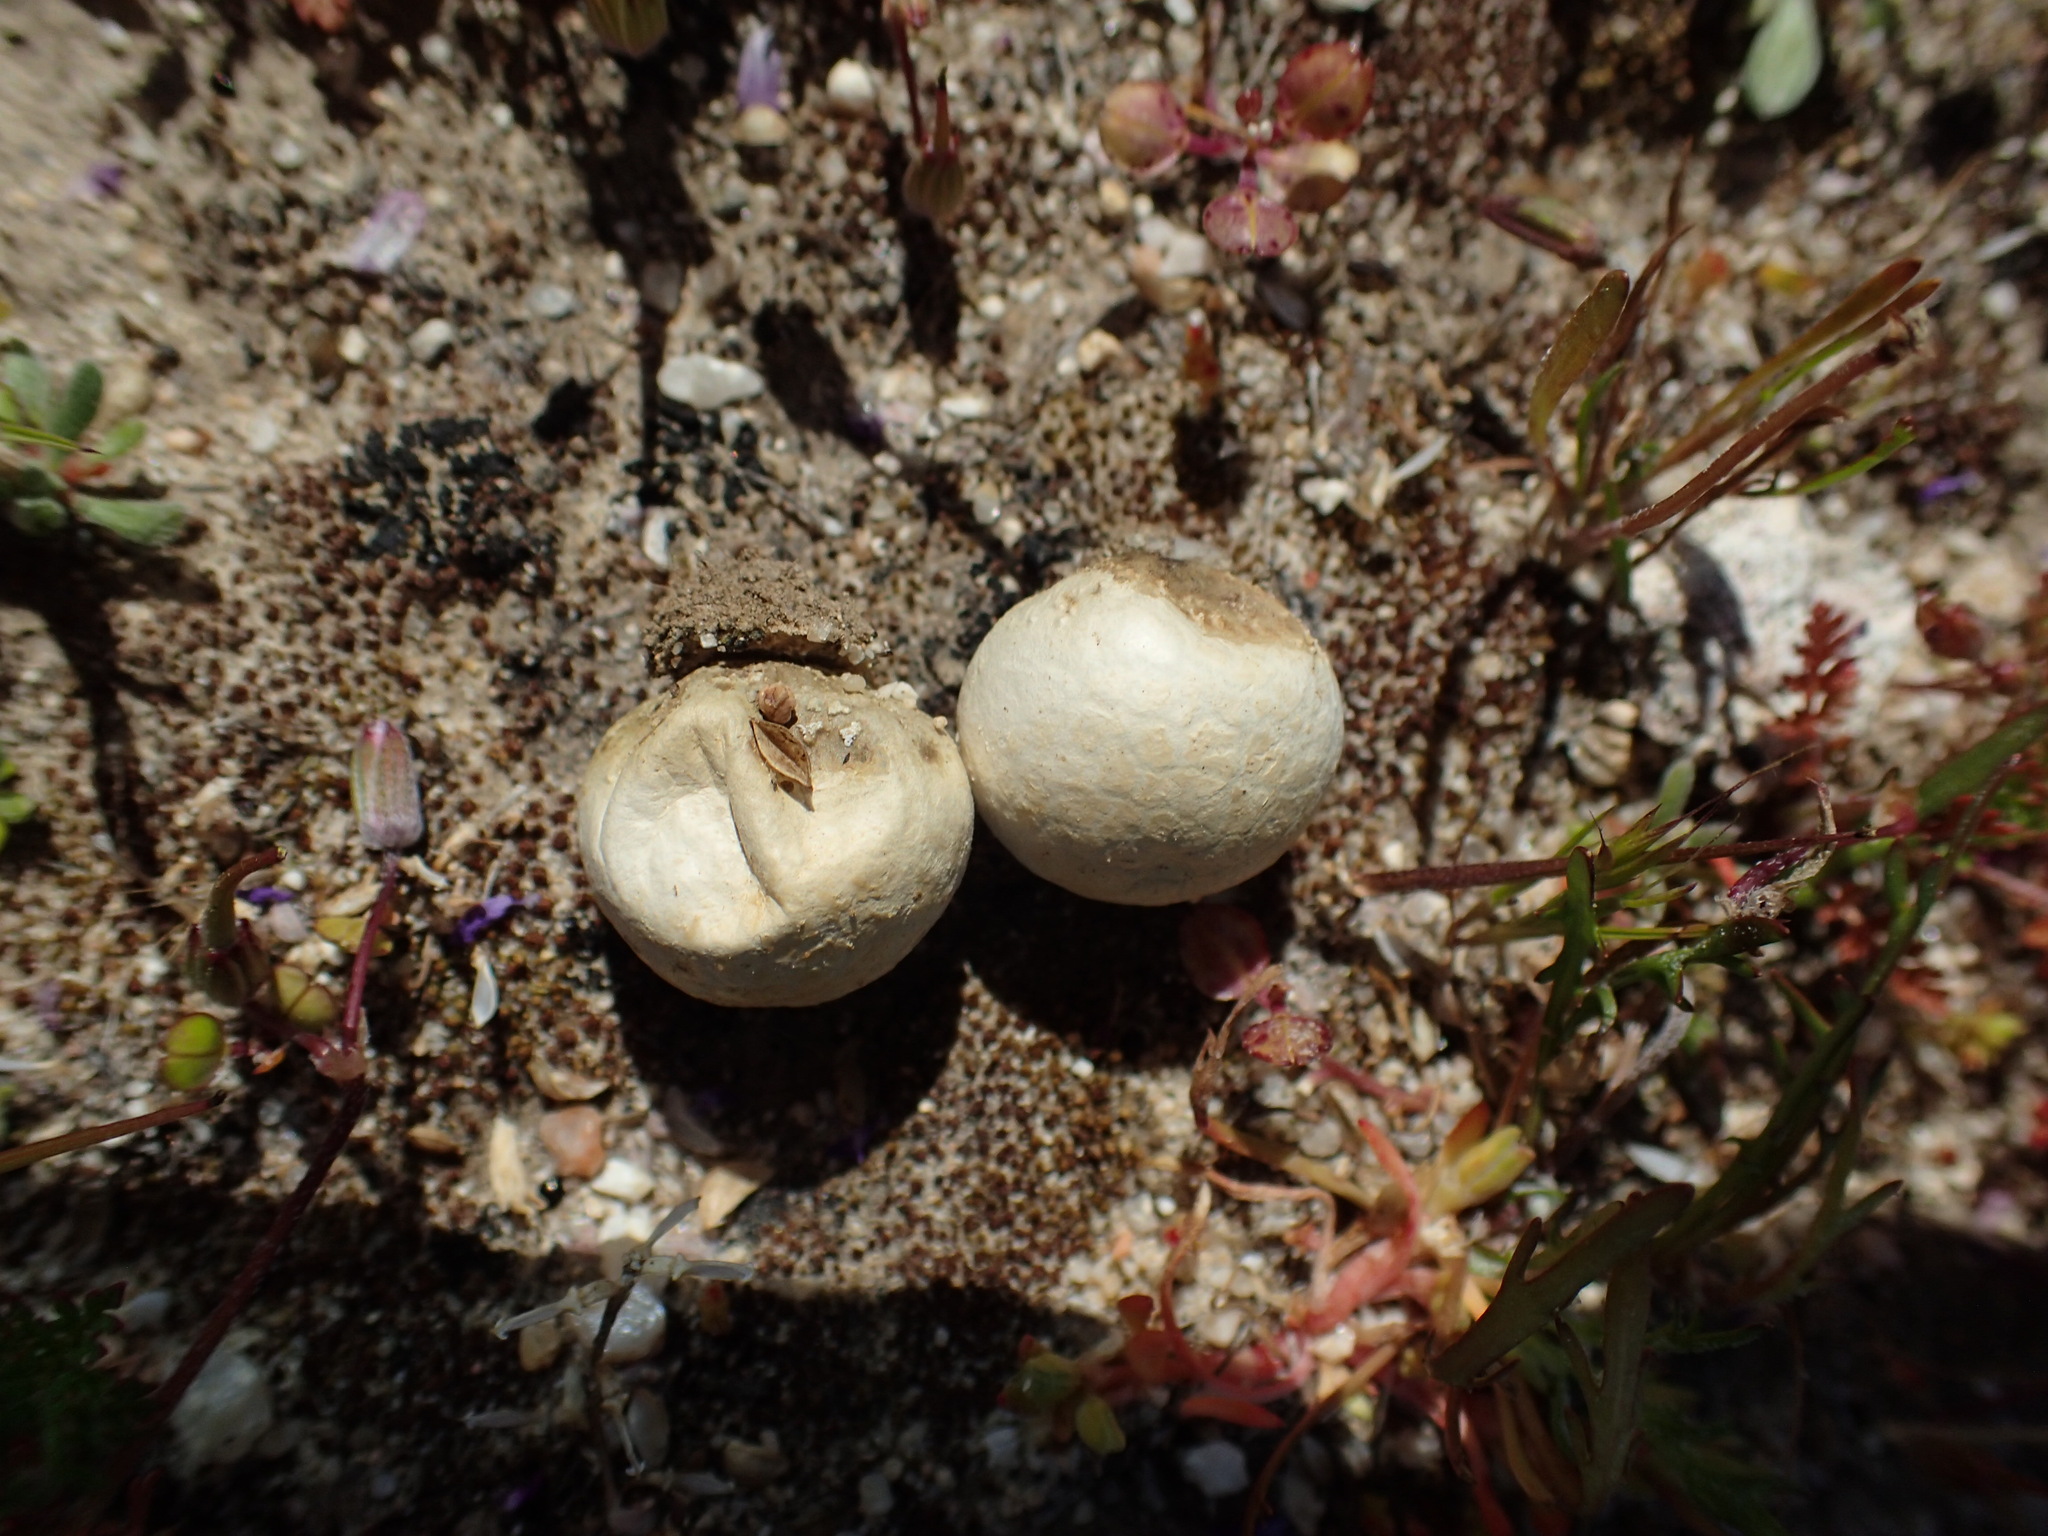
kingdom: Fungi
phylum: Basidiomycota
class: Agaricomycetes
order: Agaricales
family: Lycoperdaceae
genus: Bovista
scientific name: Bovista plumbea
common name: Grey puffball
